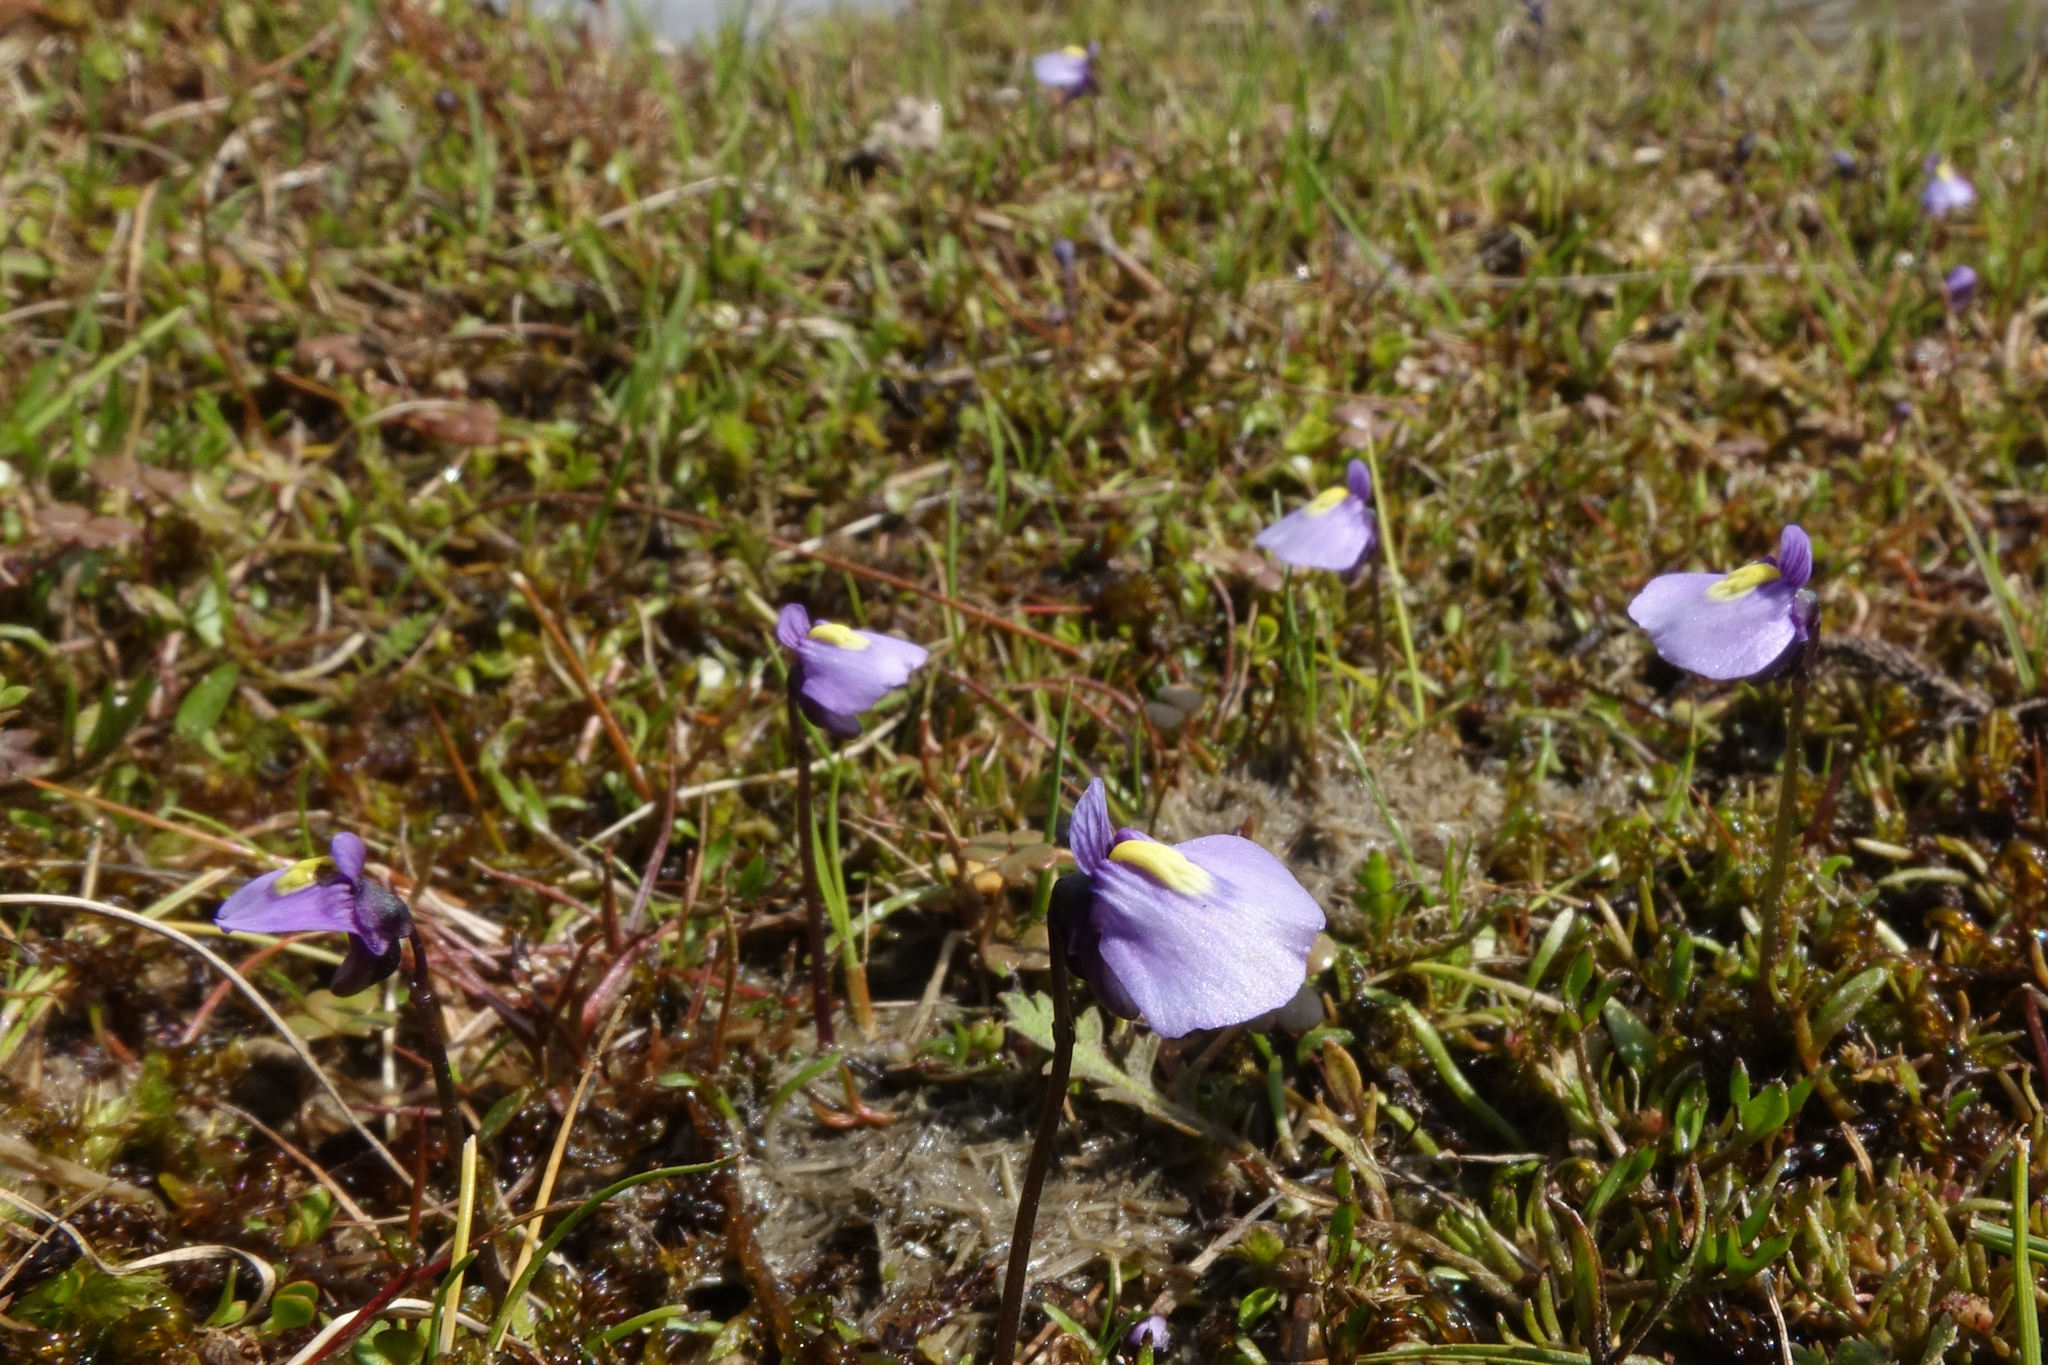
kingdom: Plantae
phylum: Tracheophyta
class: Magnoliopsida
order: Lamiales
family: Lentibulariaceae
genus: Utricularia
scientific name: Utricularia dichotoma
